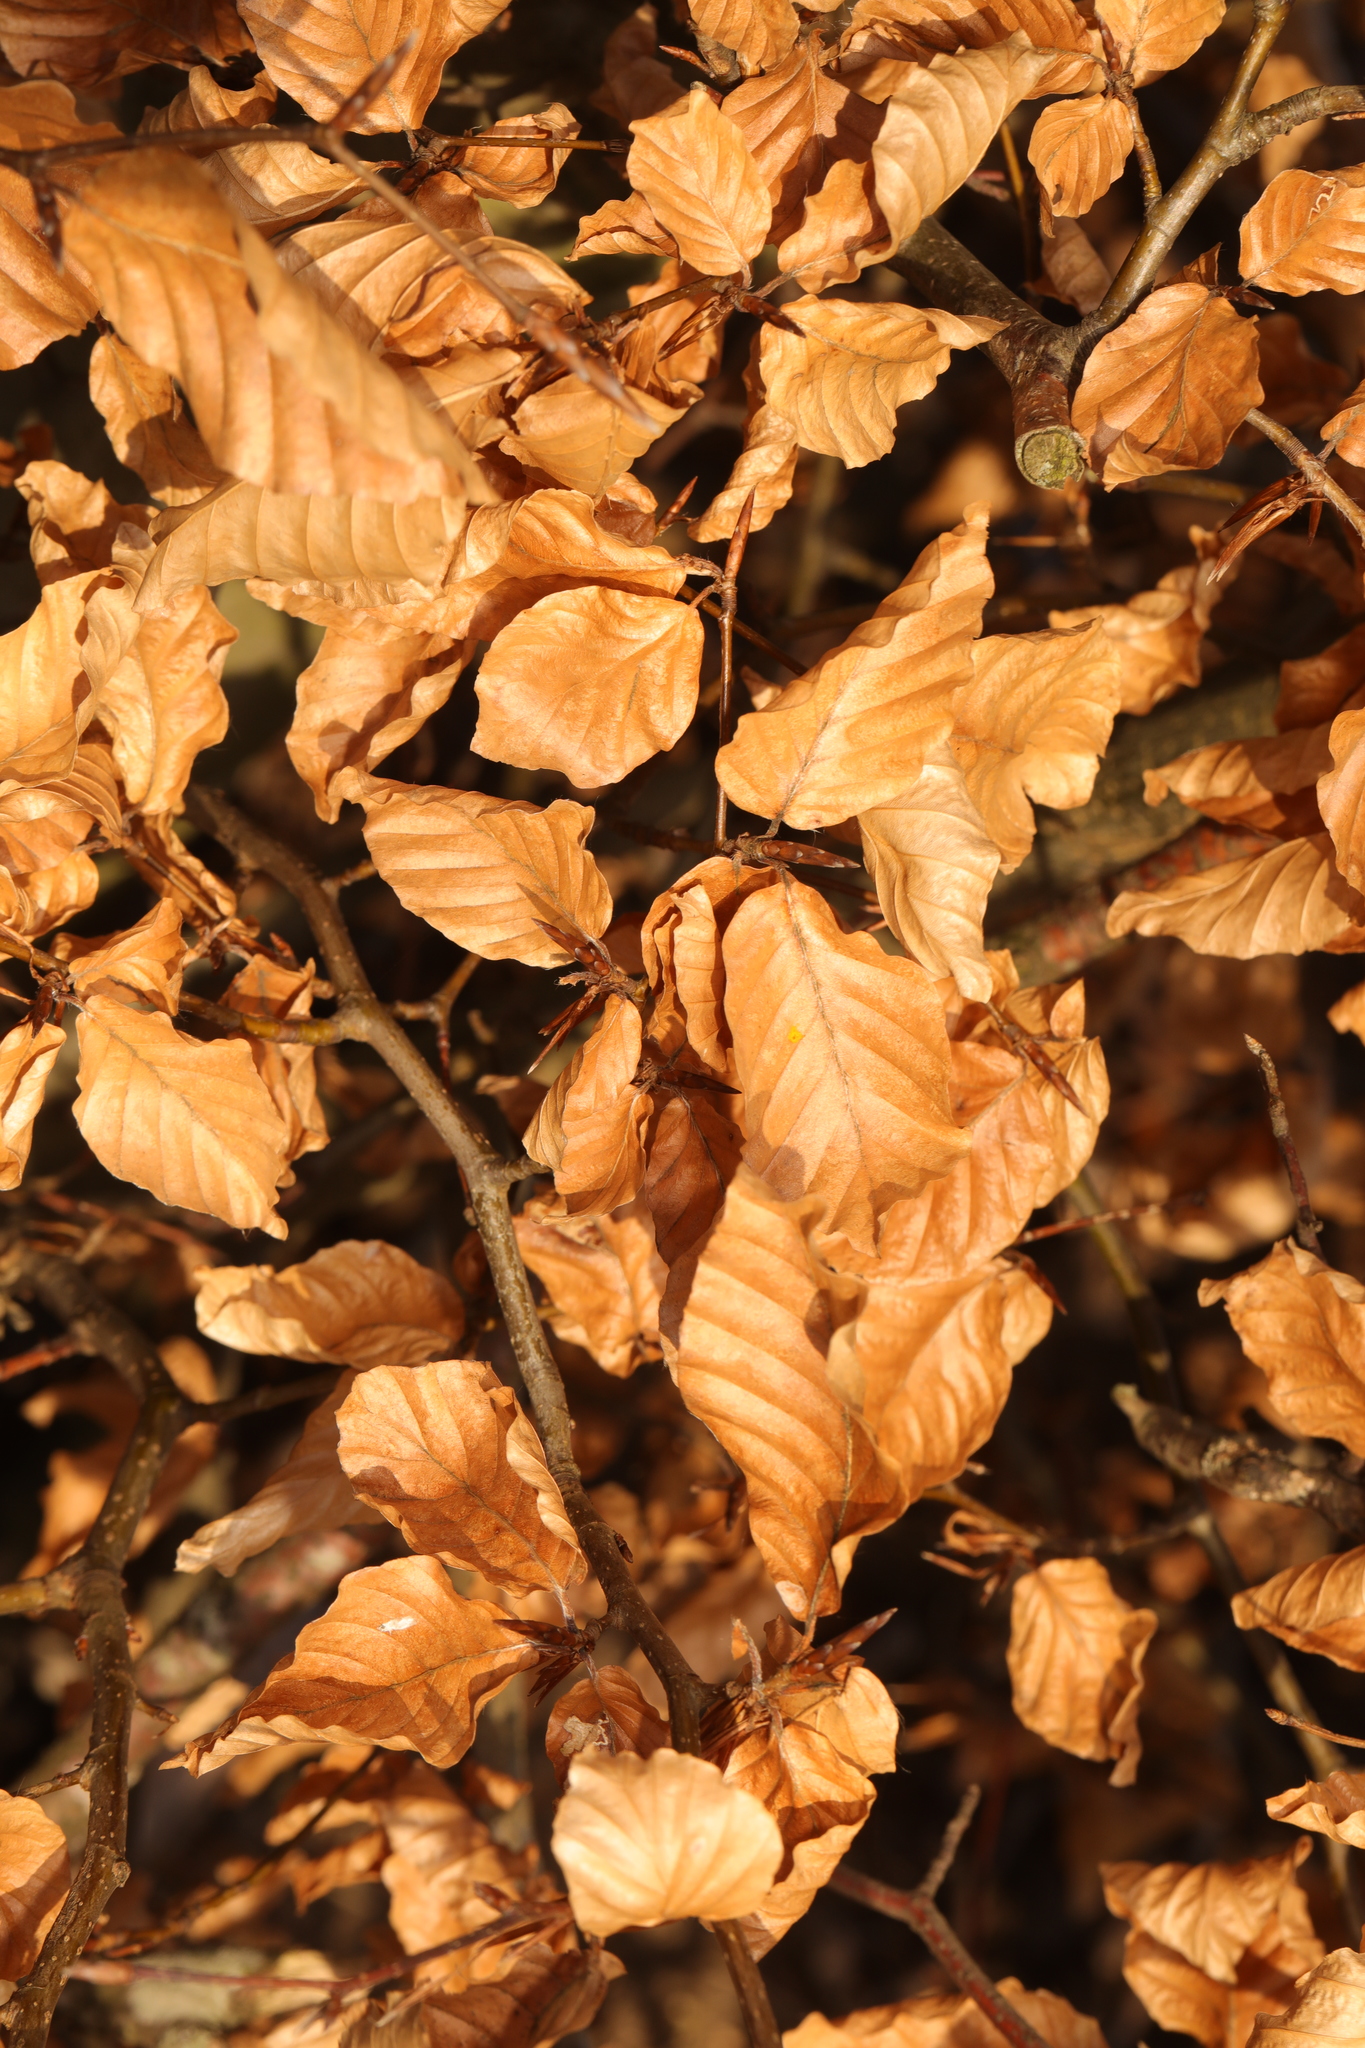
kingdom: Plantae
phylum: Tracheophyta
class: Magnoliopsida
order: Fagales
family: Fagaceae
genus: Fagus
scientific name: Fagus sylvatica
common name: Beech
